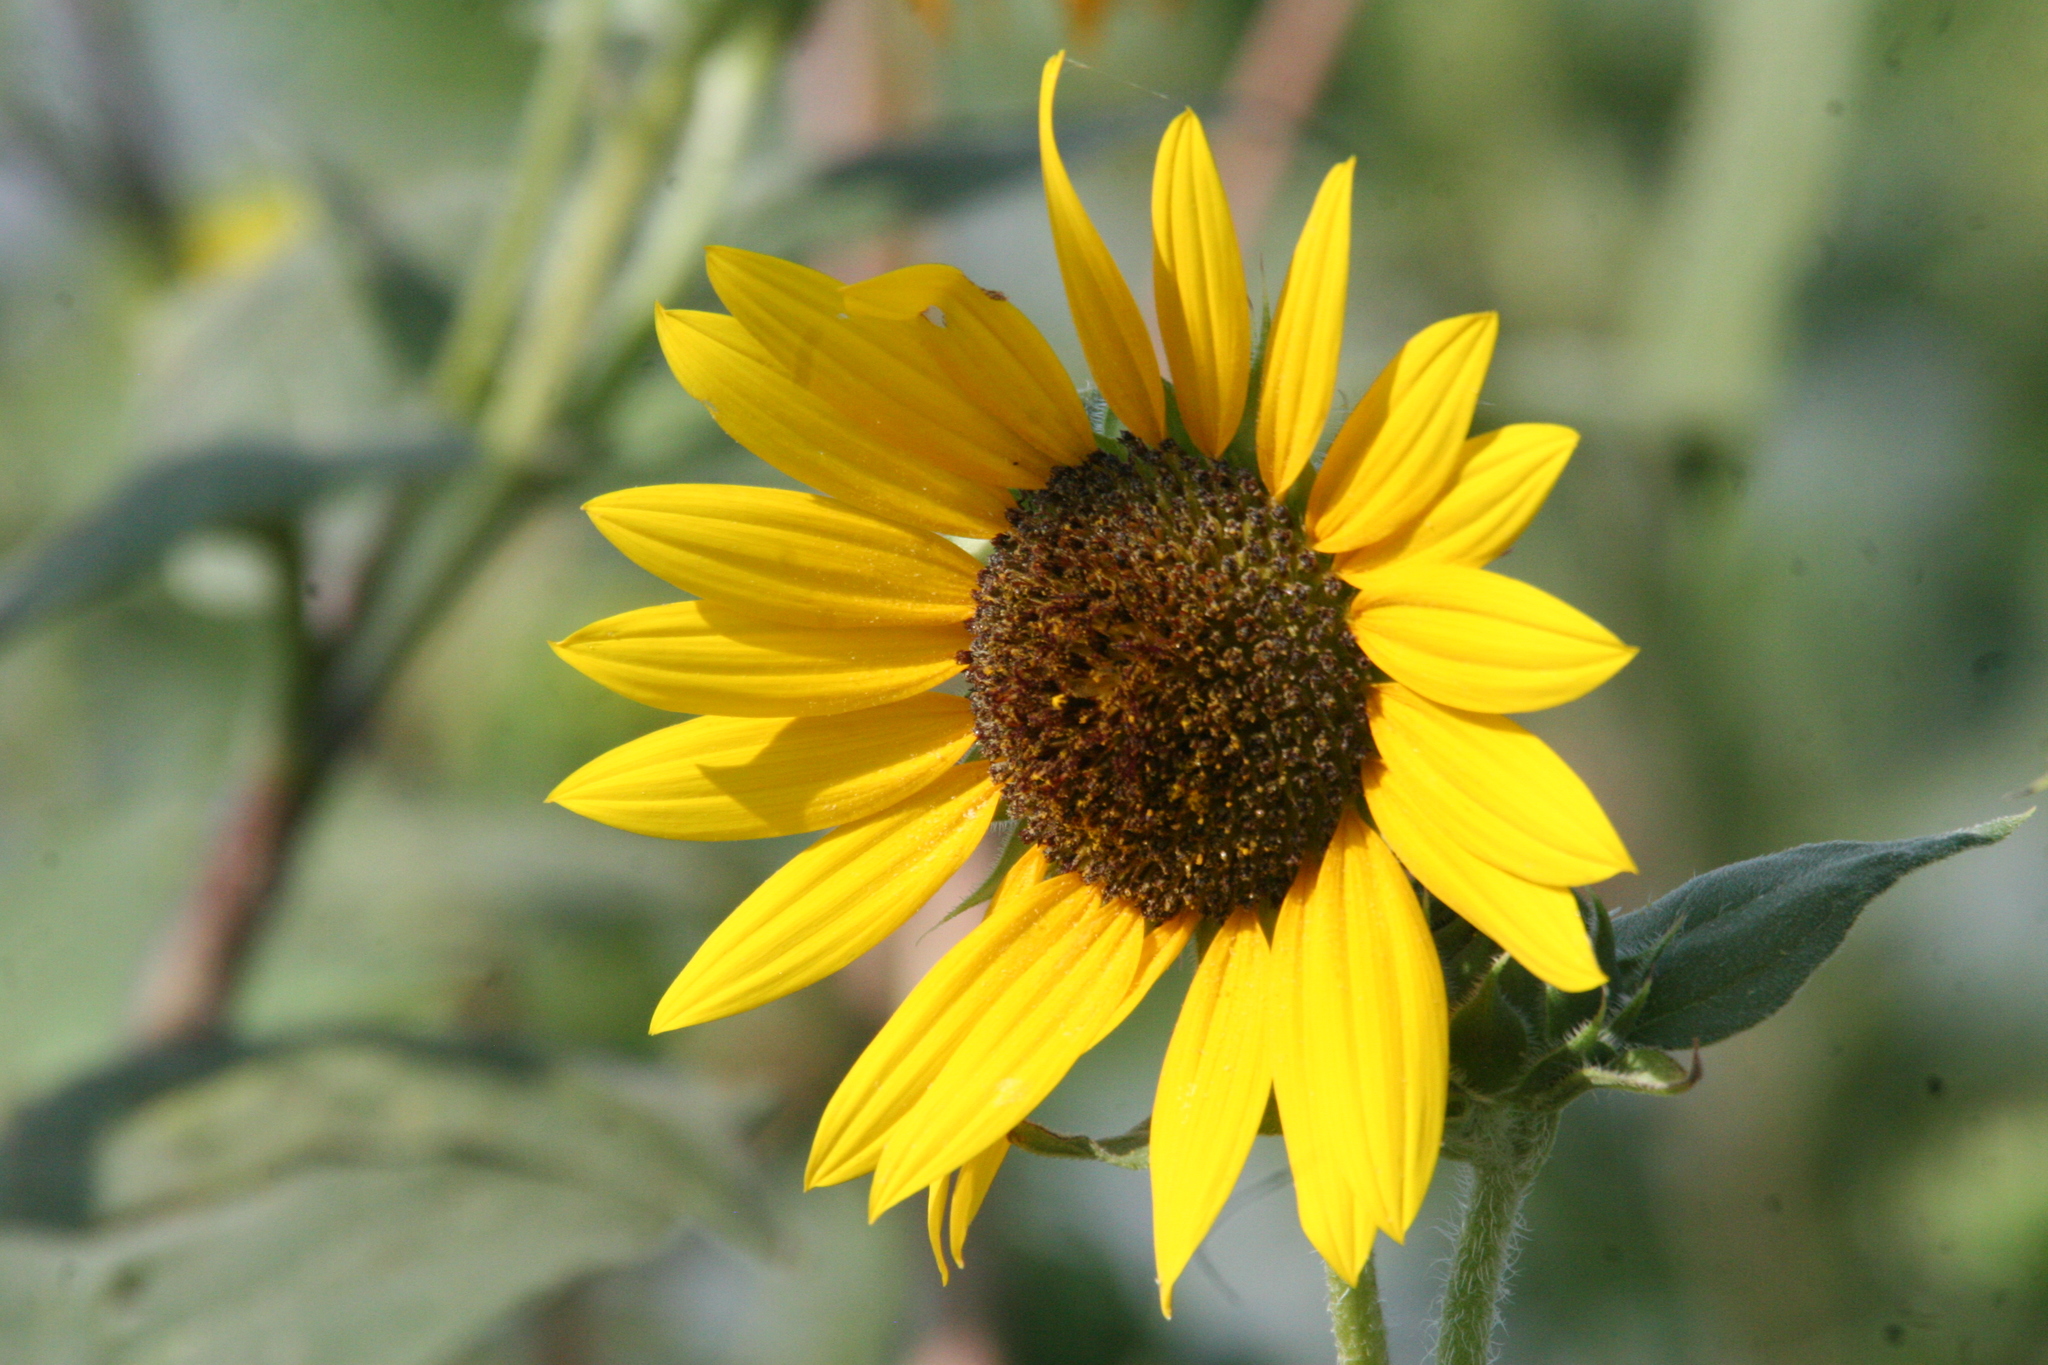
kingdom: Plantae
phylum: Tracheophyta
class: Magnoliopsida
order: Asterales
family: Asteraceae
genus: Helianthus
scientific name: Helianthus annuus
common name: Sunflower
